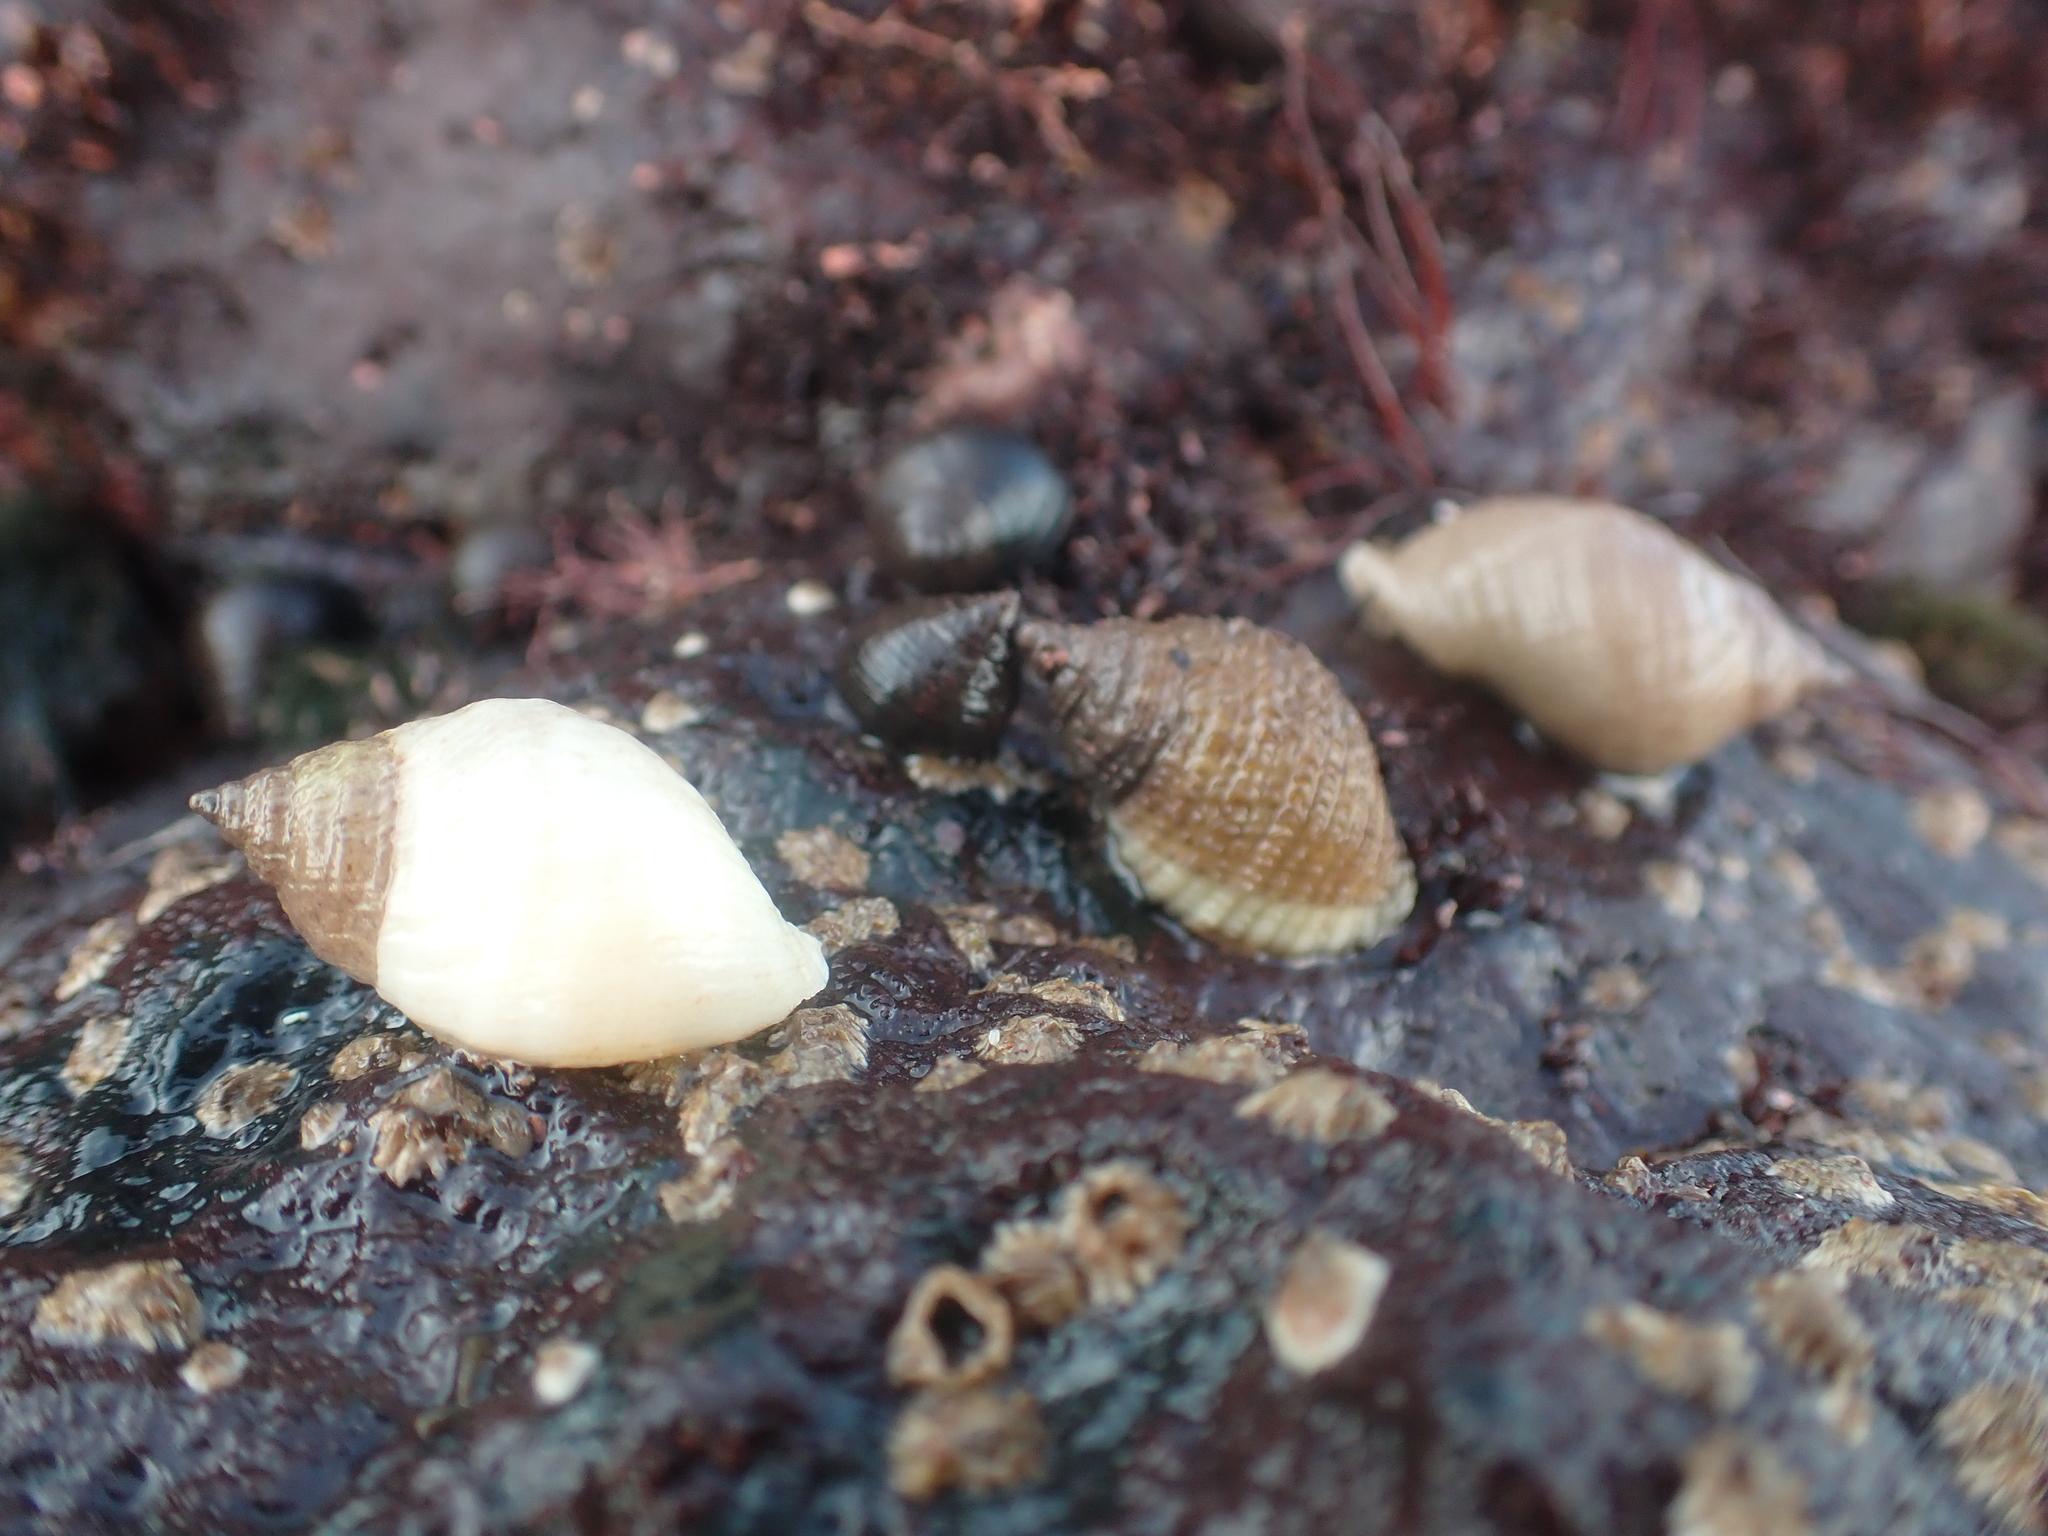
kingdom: Animalia
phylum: Mollusca
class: Gastropoda
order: Neogastropoda
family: Muricidae
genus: Nucella
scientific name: Nucella lapillus
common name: Dog whelk
